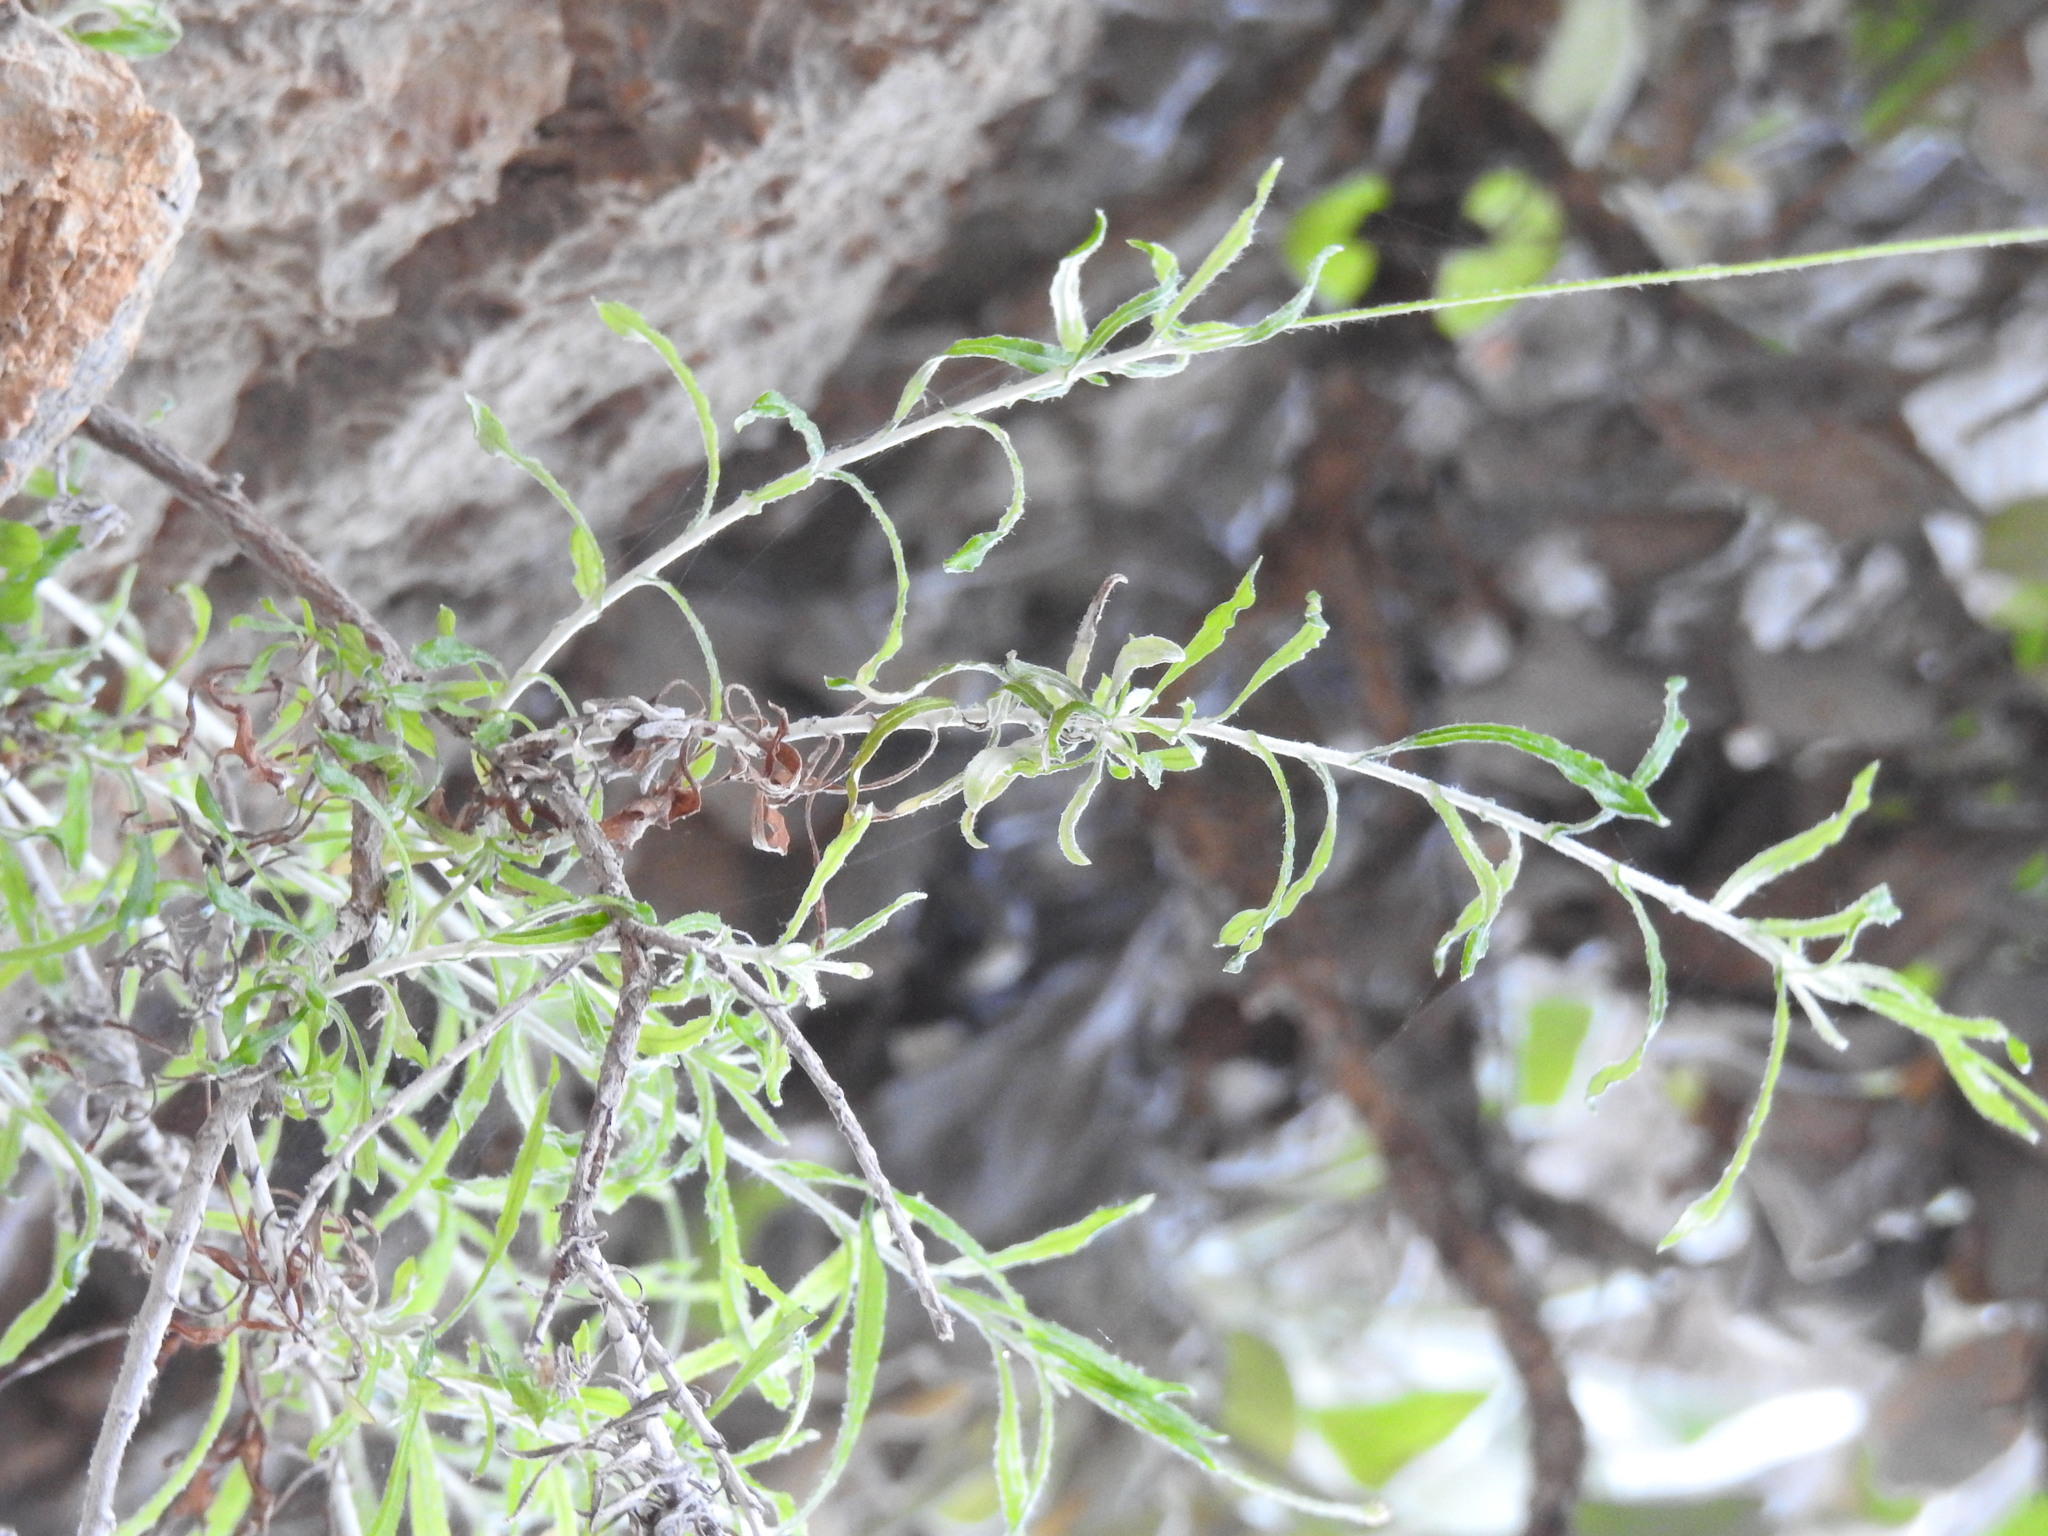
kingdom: Plantae
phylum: Tracheophyta
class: Magnoliopsida
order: Asterales
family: Asteraceae
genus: Phagnalon
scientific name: Phagnalon graecum
